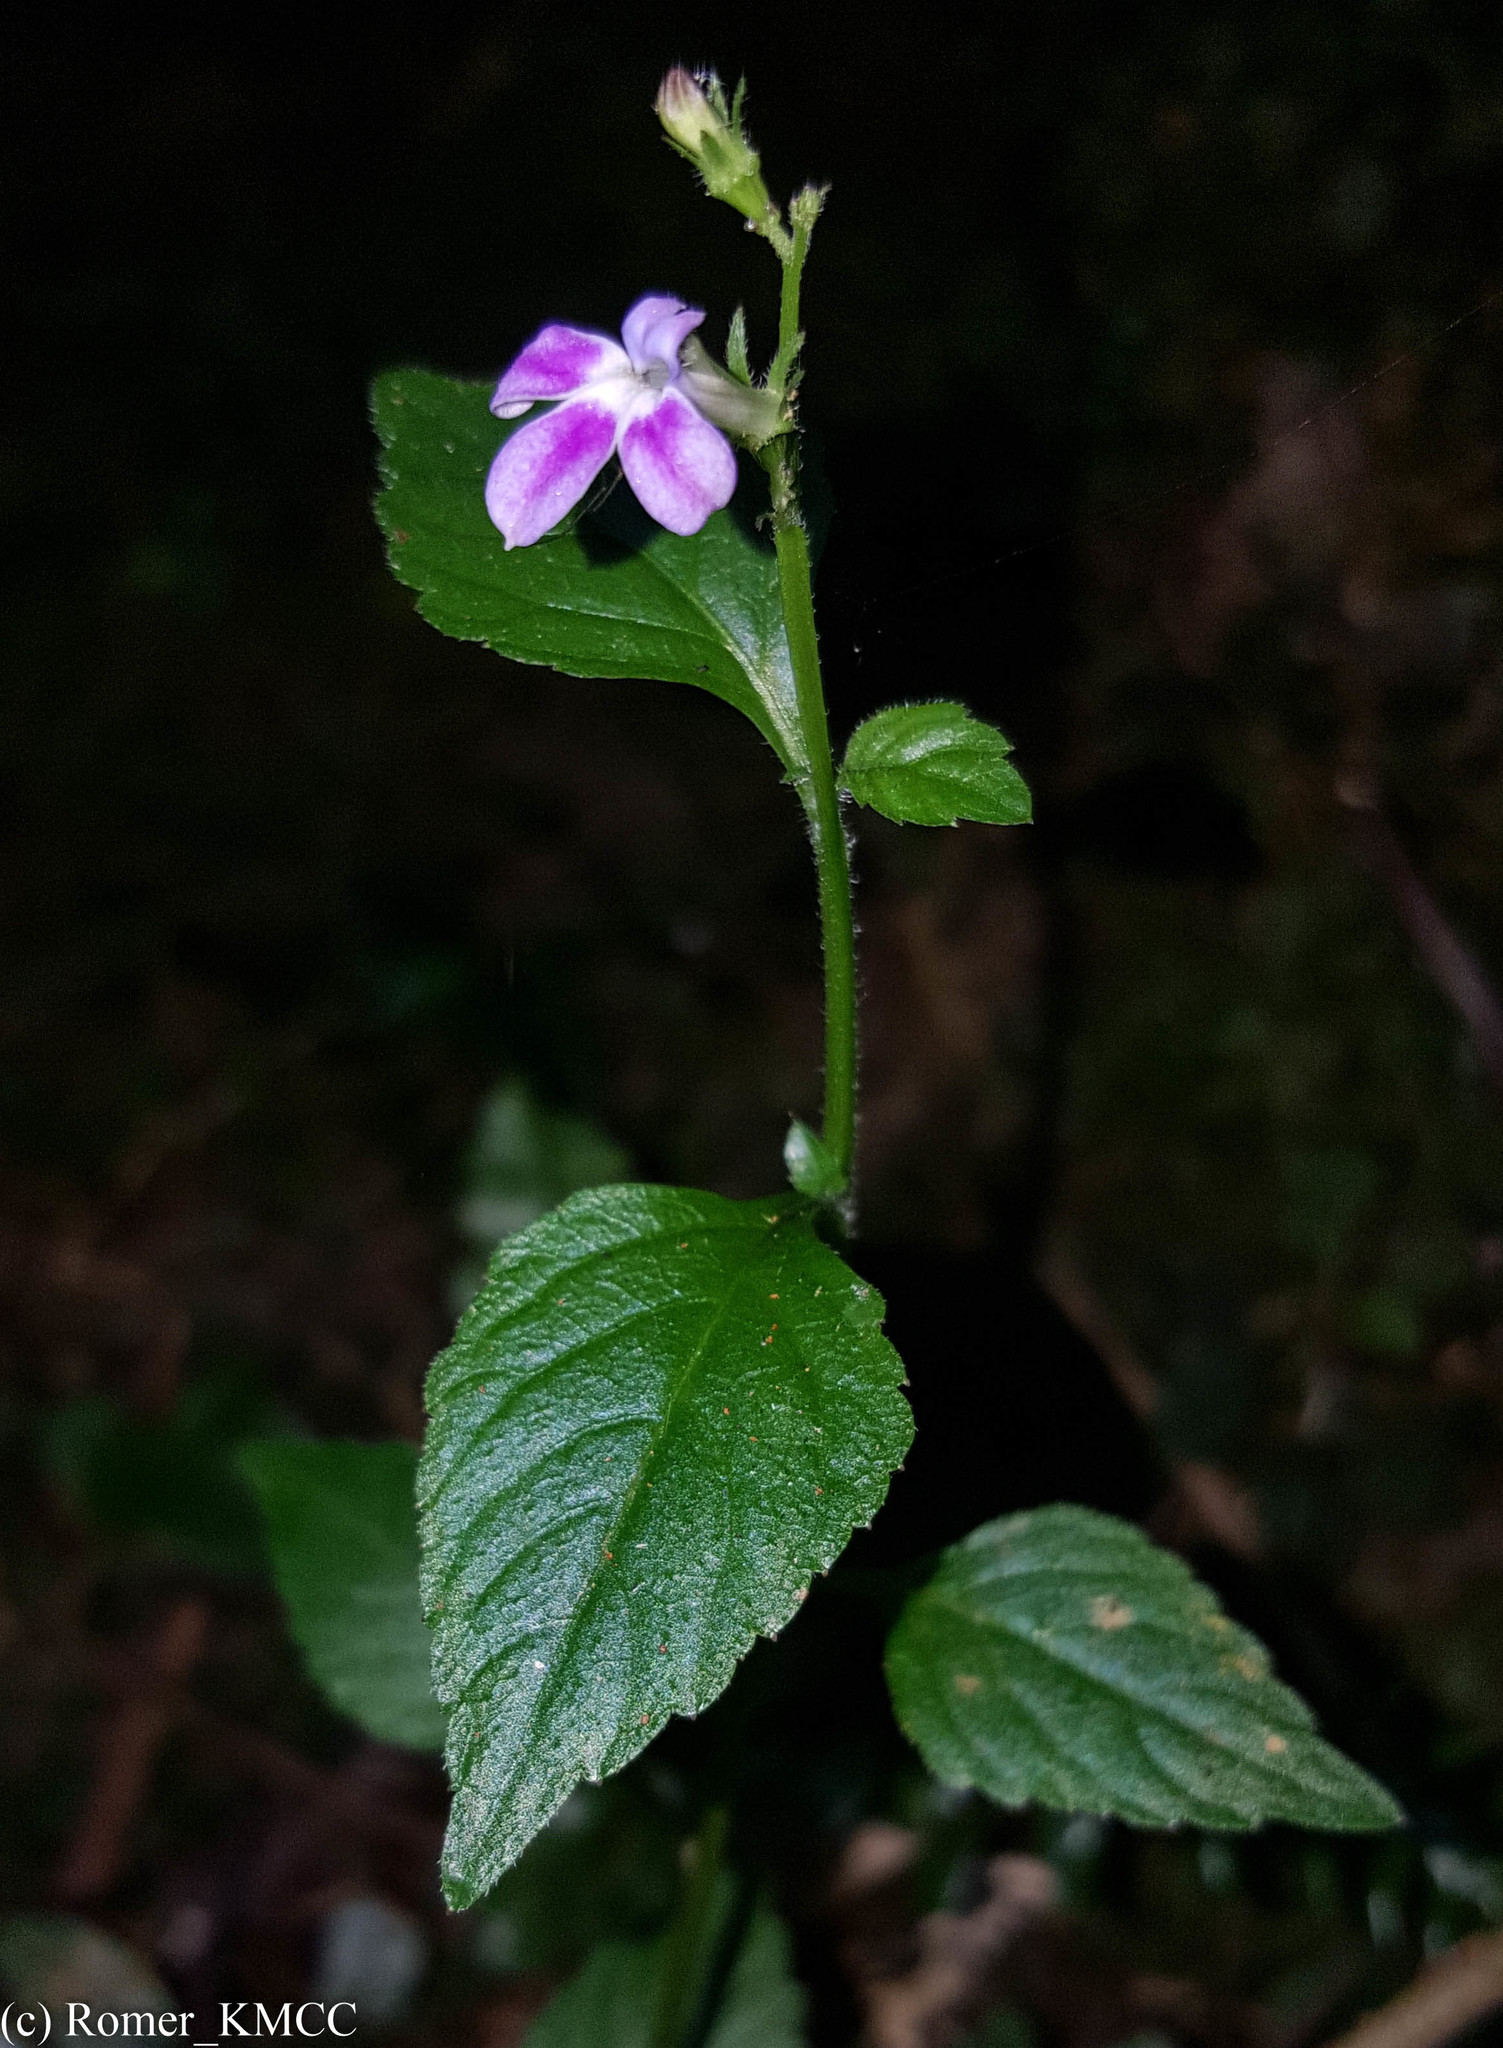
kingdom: Plantae
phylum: Tracheophyta
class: Magnoliopsida
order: Asterales
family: Campanulaceae
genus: Lobelia
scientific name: Lobelia hartlaubii
